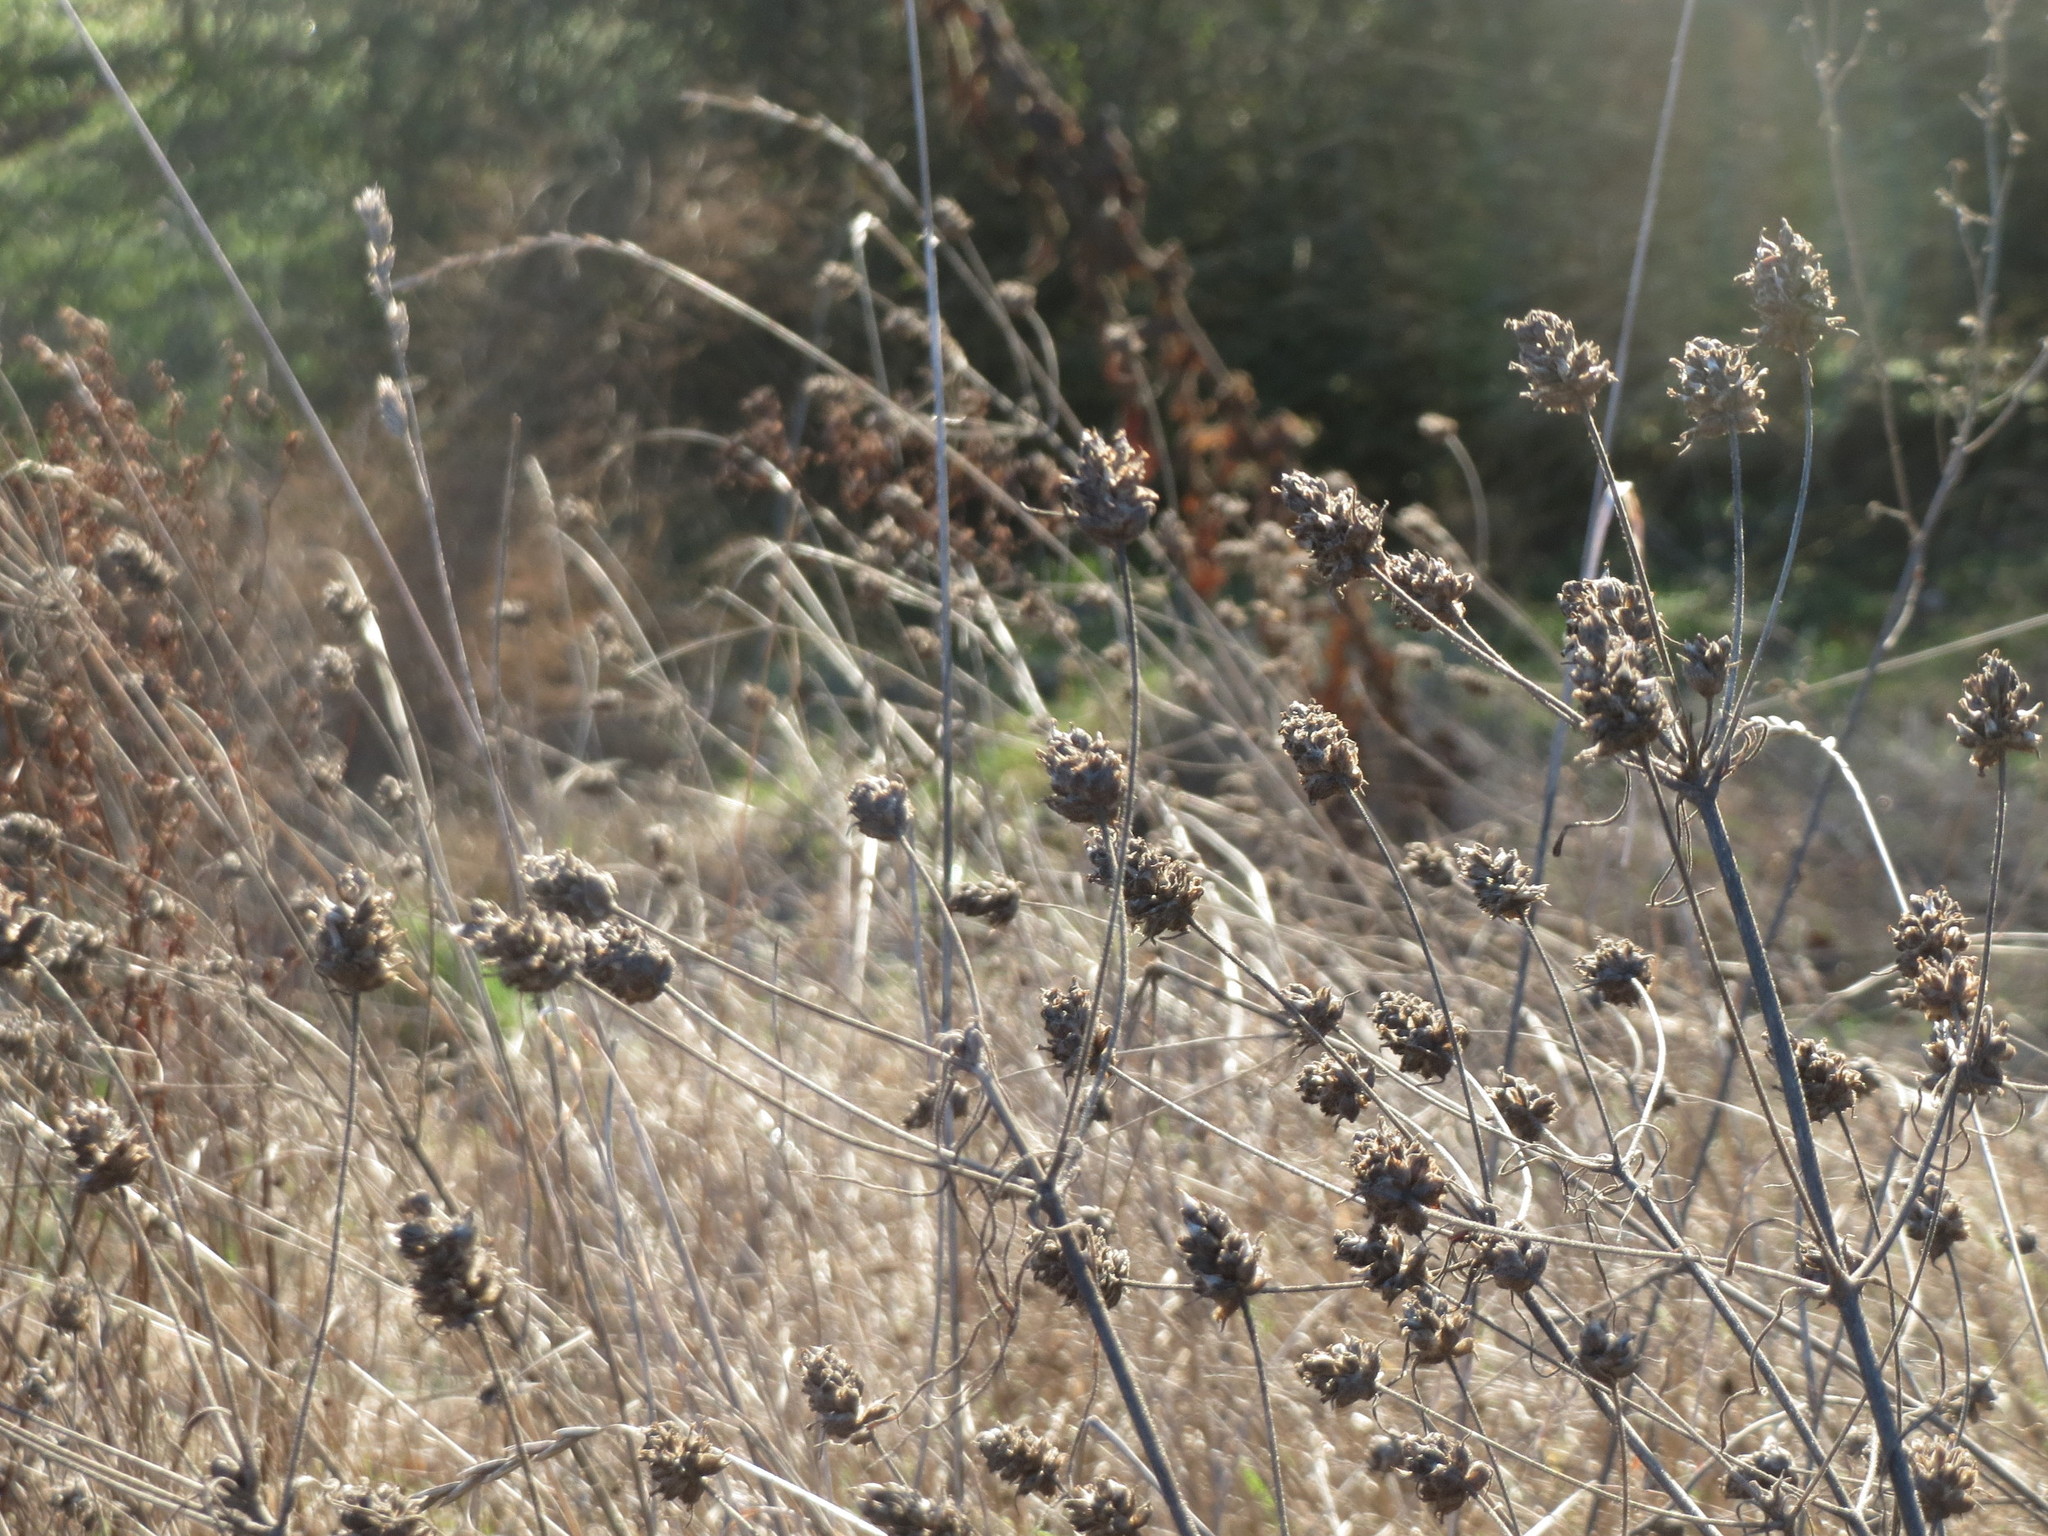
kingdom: Plantae
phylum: Tracheophyta
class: Magnoliopsida
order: Lamiales
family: Plantaginaceae
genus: Plantago
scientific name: Plantago arenaria
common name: Branched plantain
